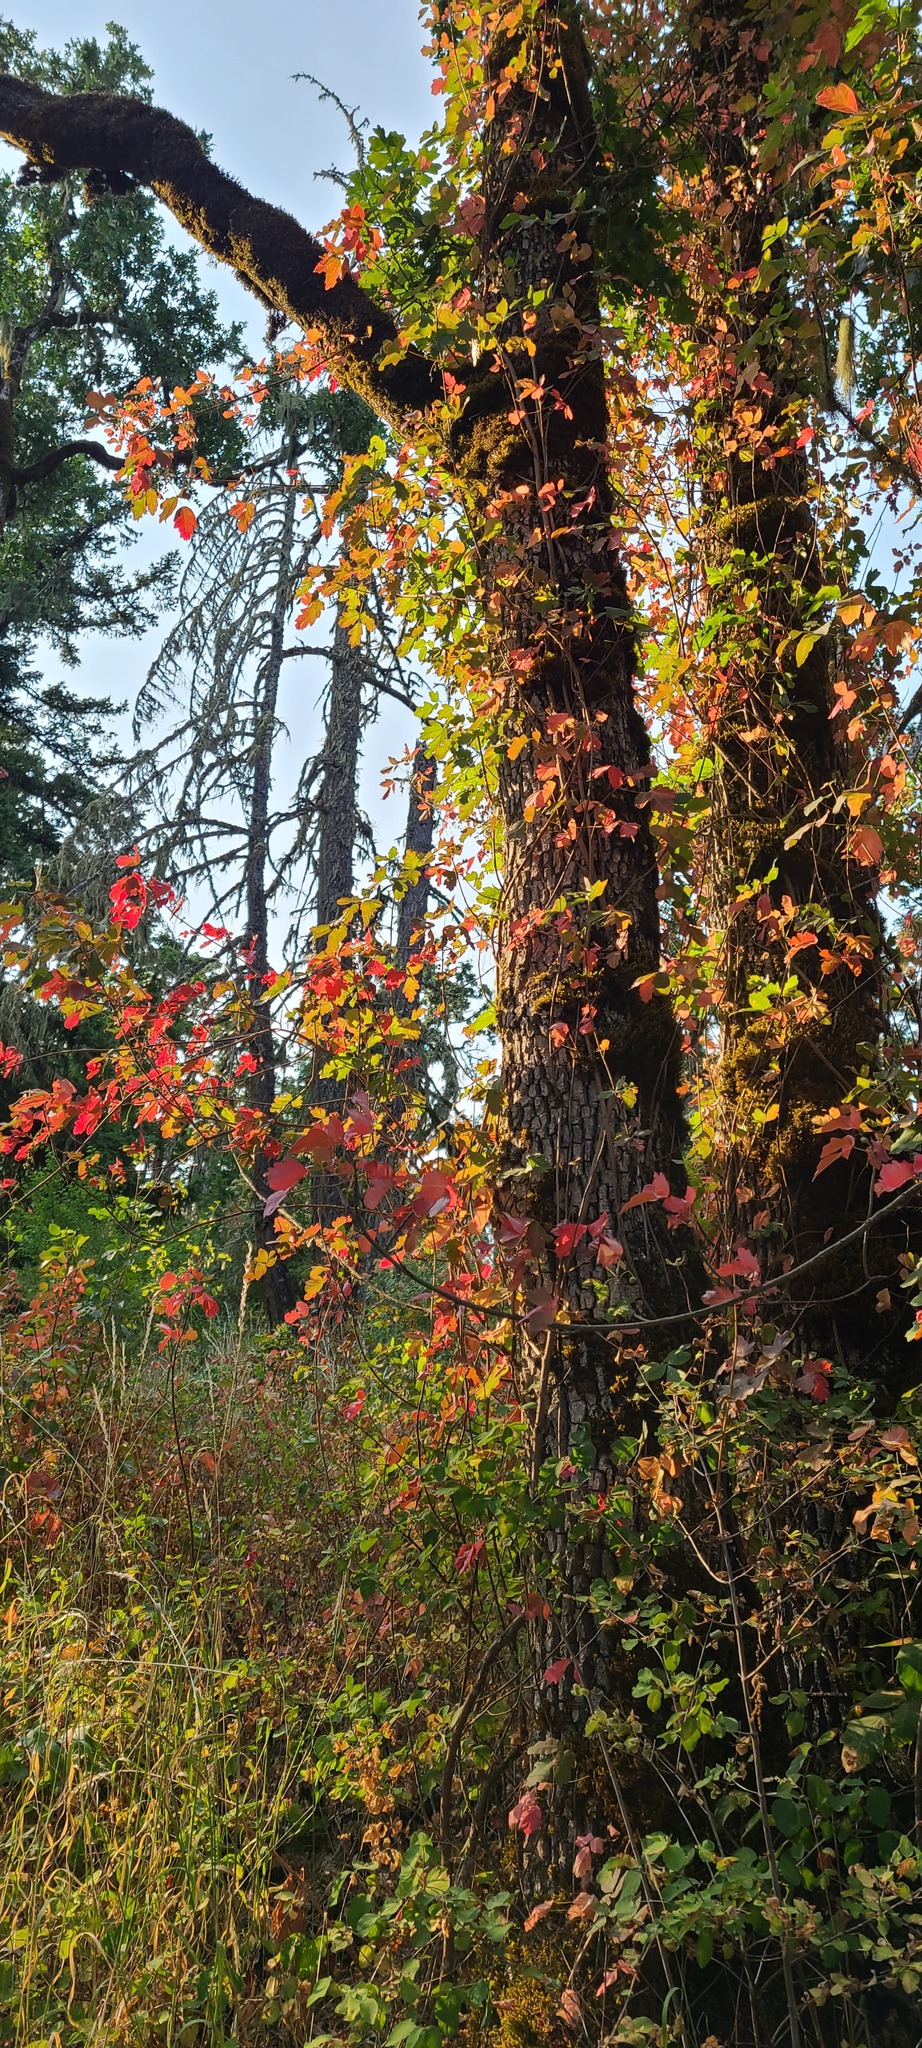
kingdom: Plantae
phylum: Tracheophyta
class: Magnoliopsida
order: Sapindales
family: Anacardiaceae
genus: Toxicodendron
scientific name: Toxicodendron diversilobum
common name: Pacific poison-oak
